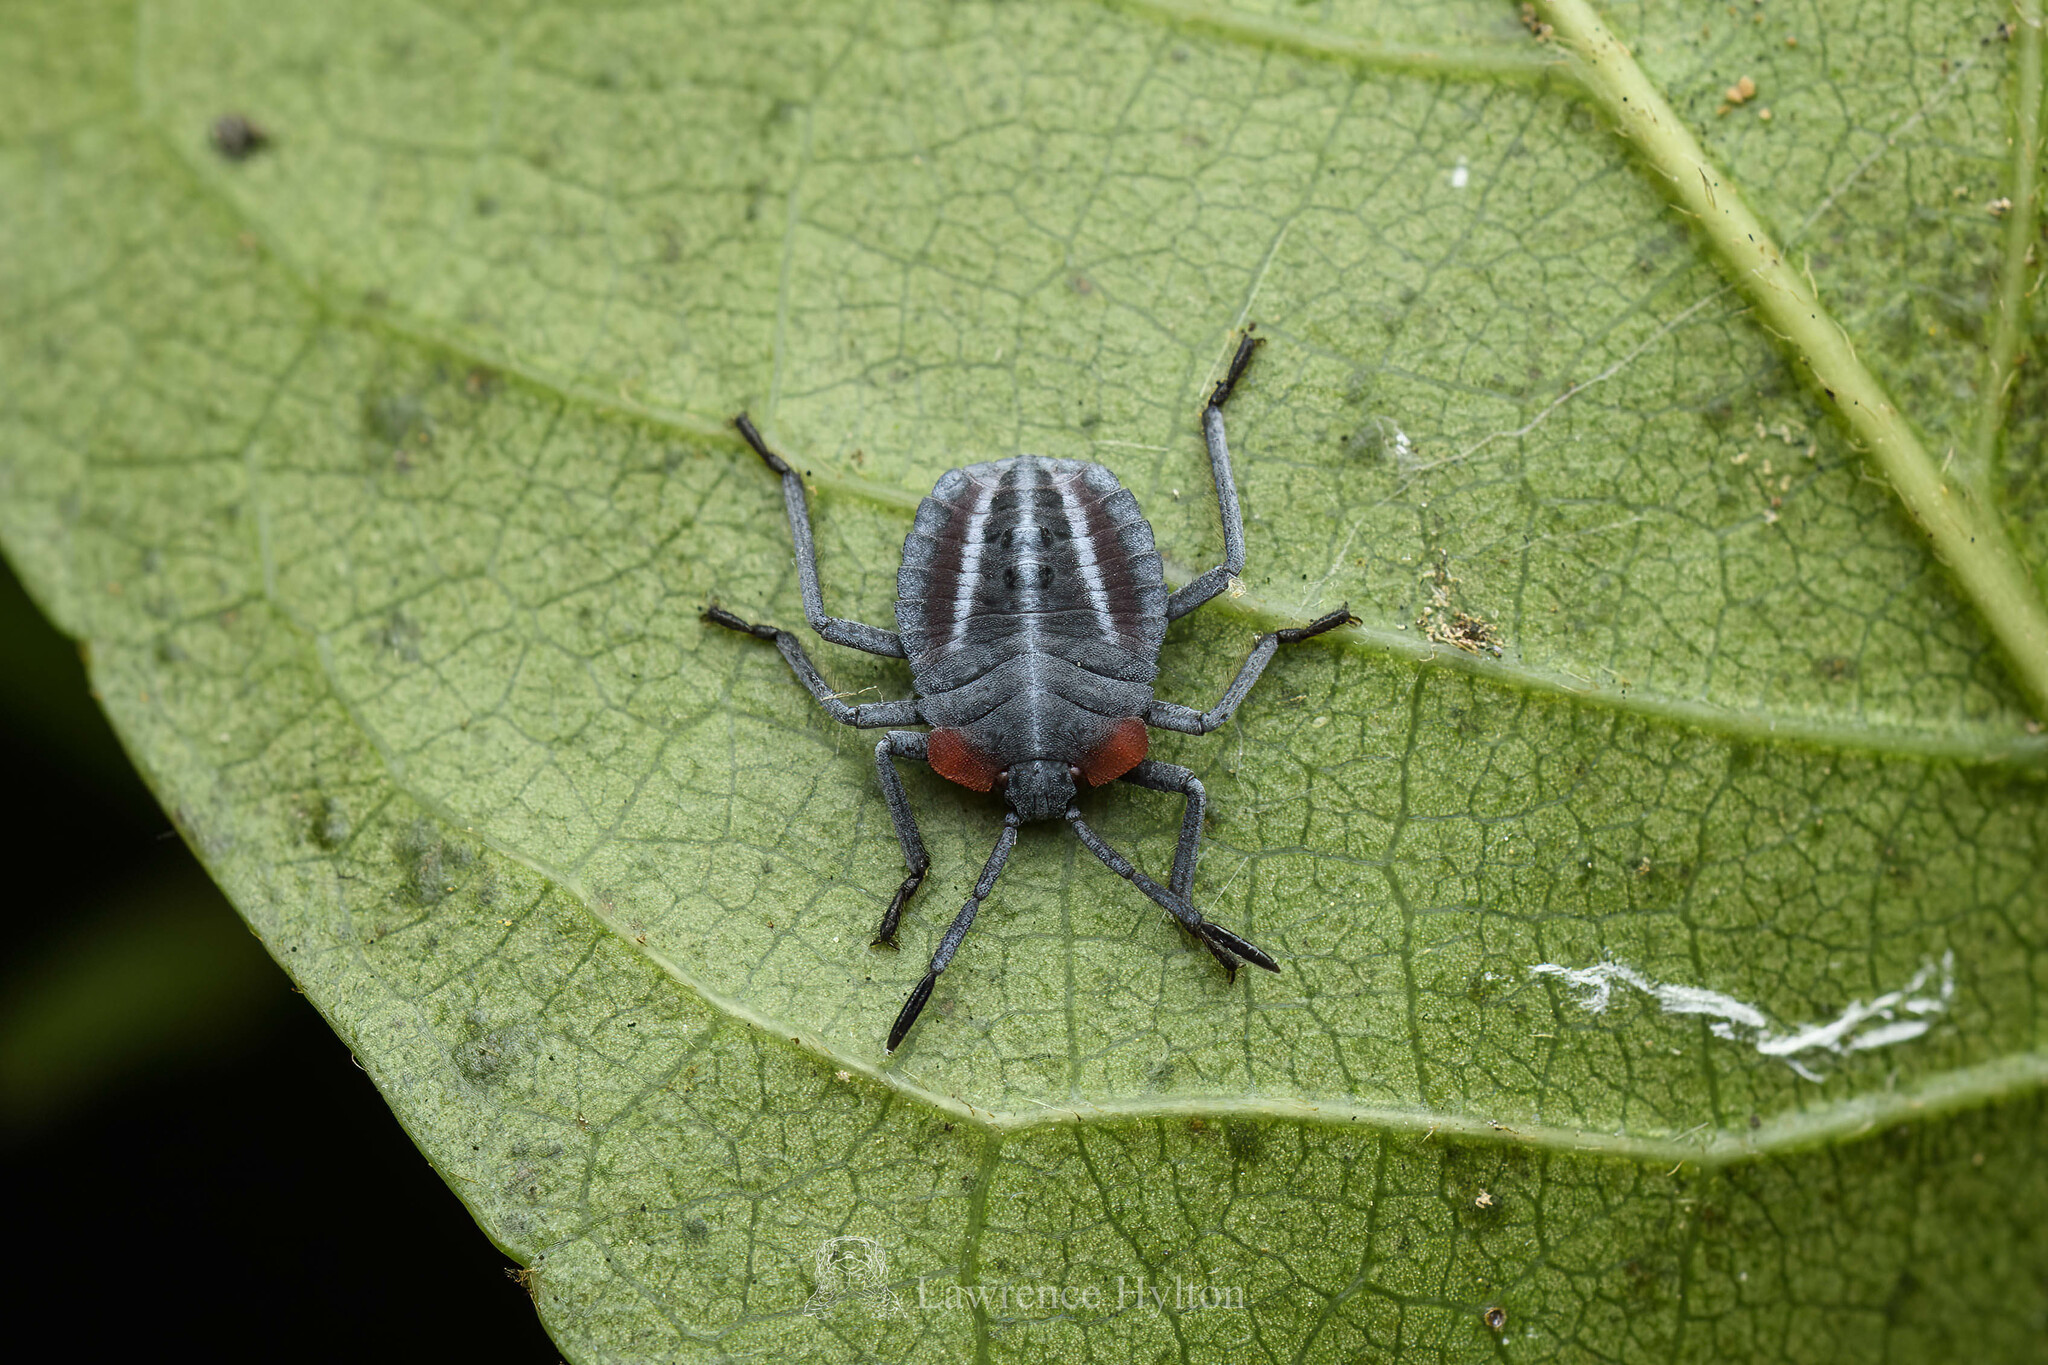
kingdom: Animalia
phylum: Arthropoda
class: Insecta
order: Hemiptera
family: Tessaratomidae
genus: Tessaratoma
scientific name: Tessaratoma papillosa
